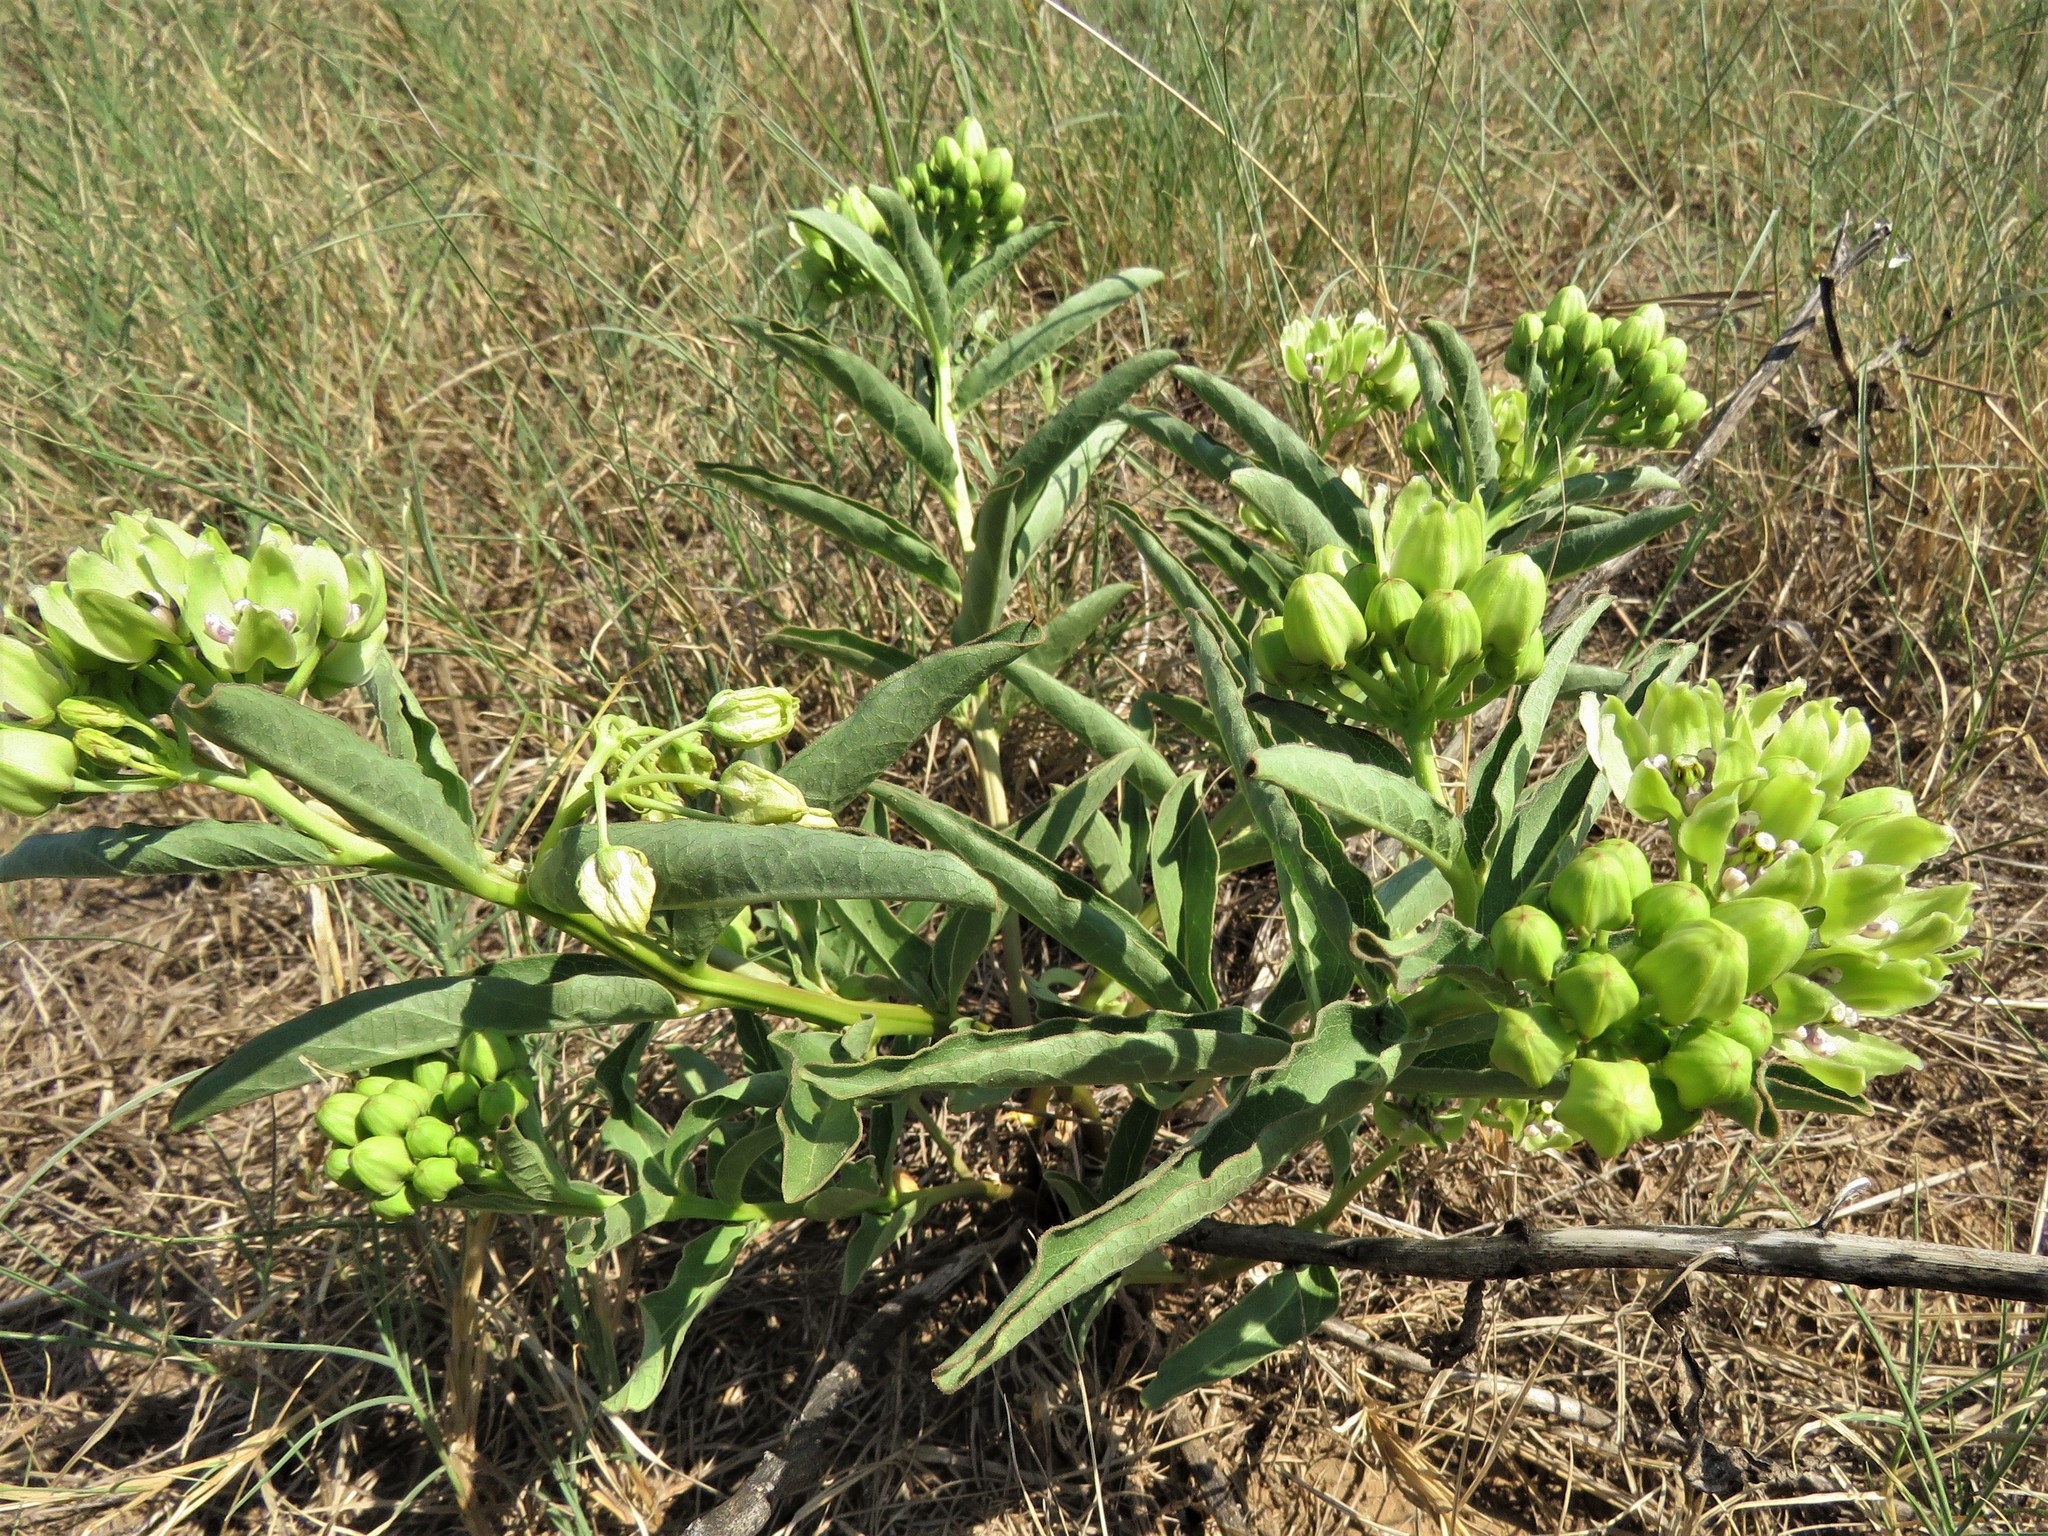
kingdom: Plantae
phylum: Tracheophyta
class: Magnoliopsida
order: Gentianales
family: Apocynaceae
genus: Asclepias
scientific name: Asclepias viridis
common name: Antelope-horns
